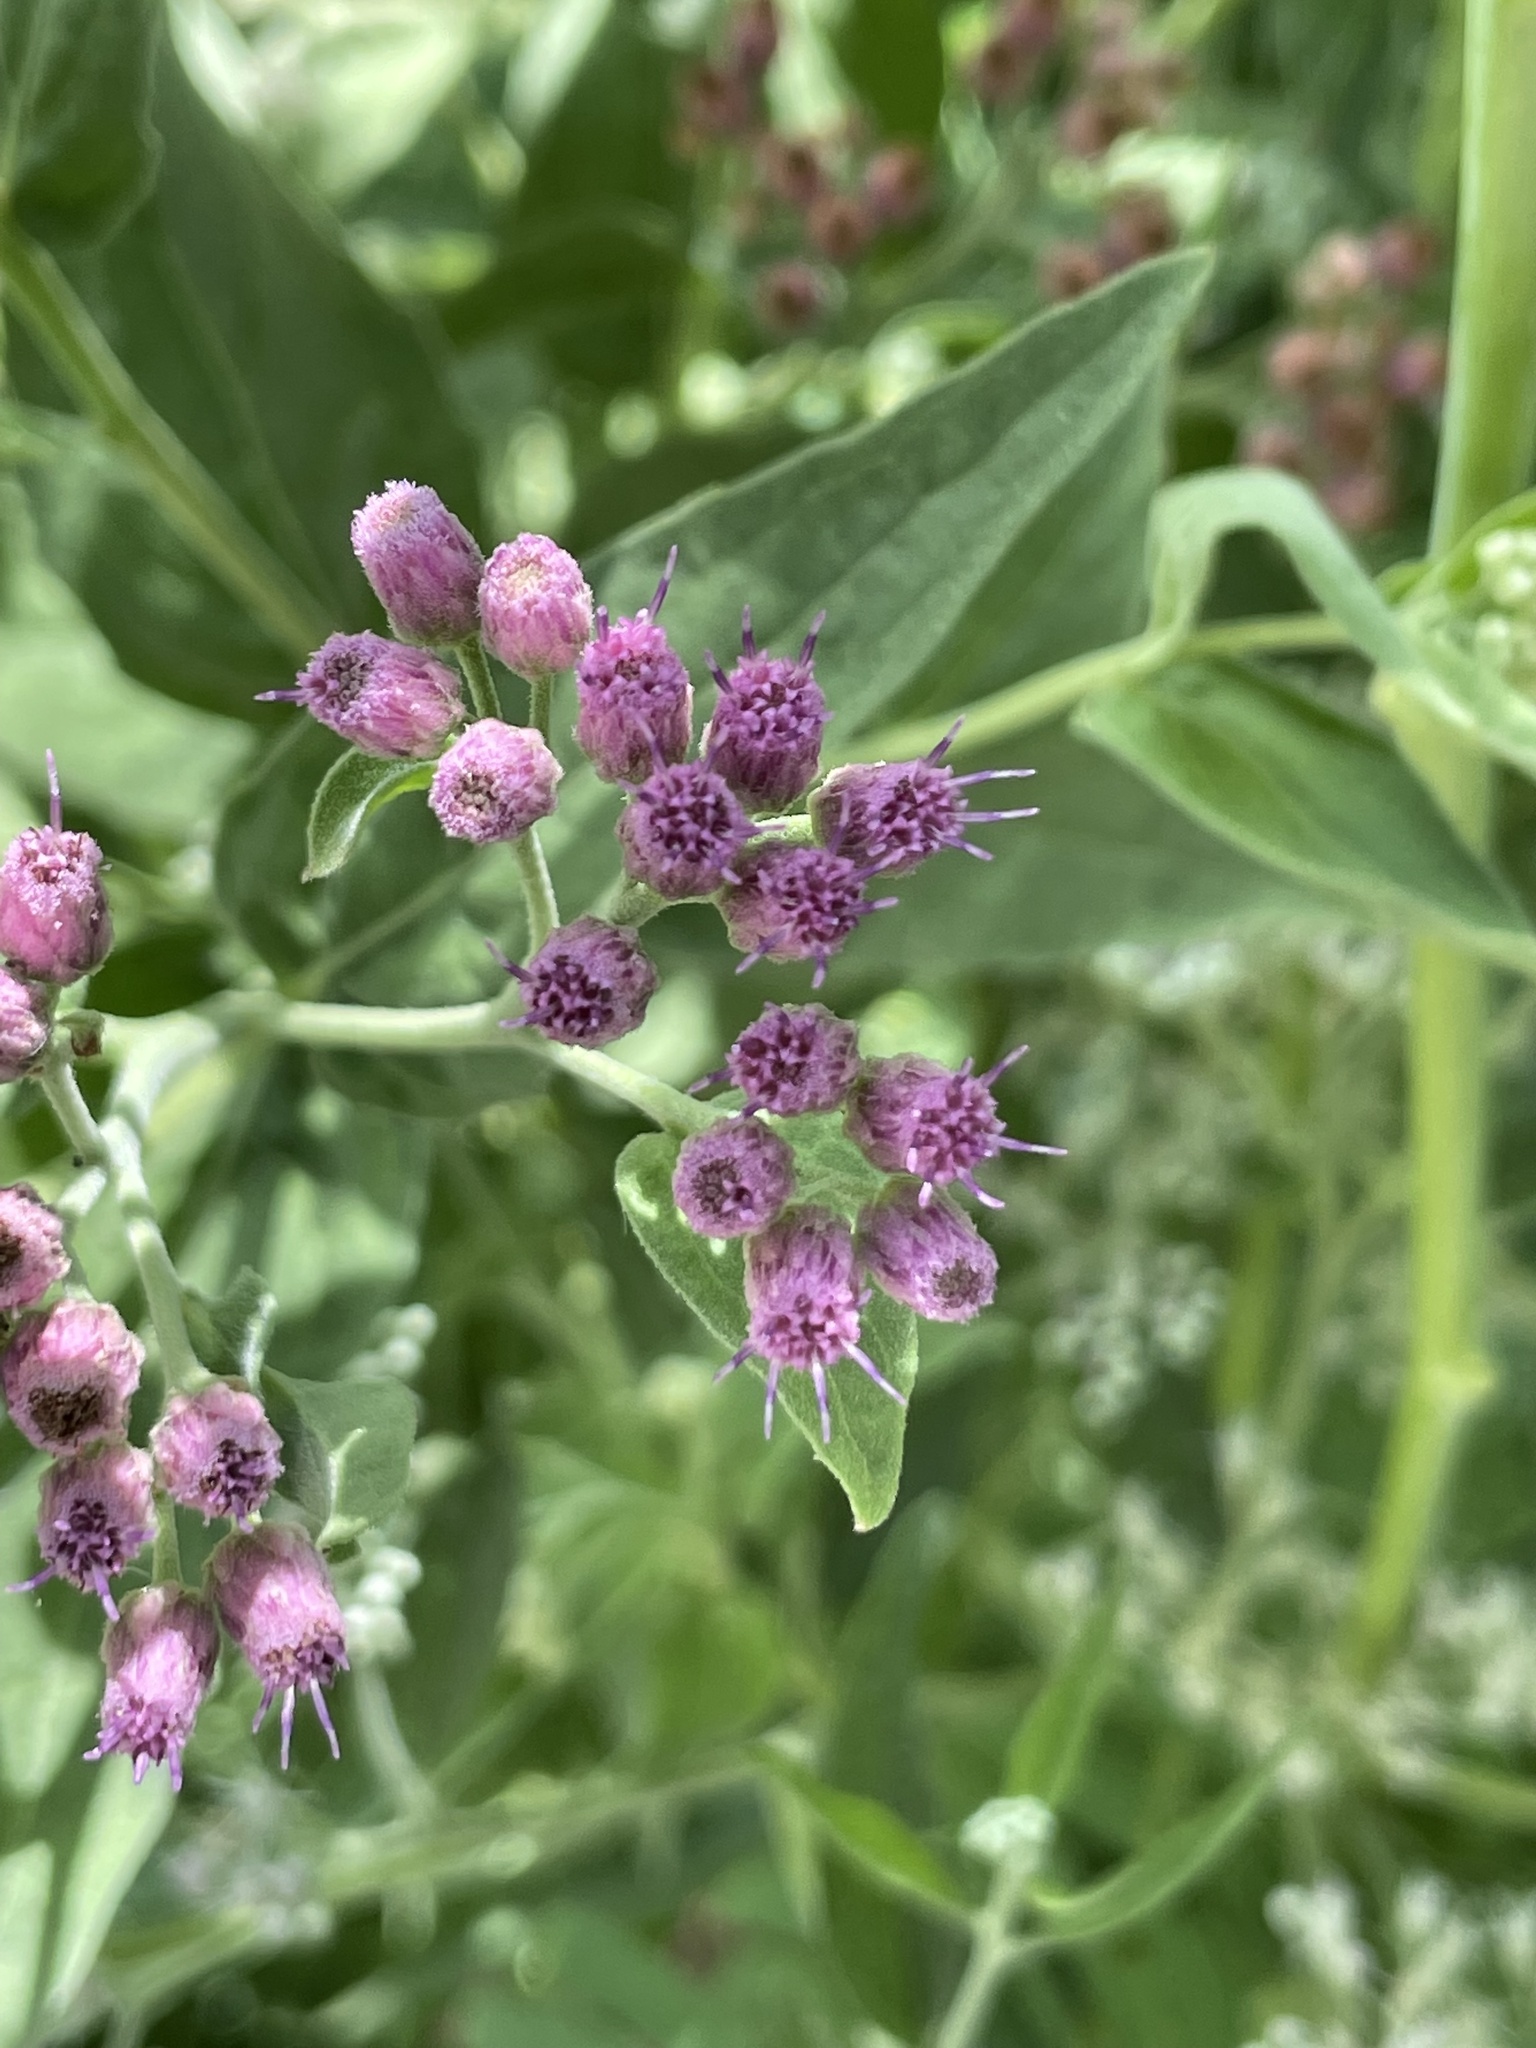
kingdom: Plantae
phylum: Tracheophyta
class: Magnoliopsida
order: Asterales
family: Asteraceae
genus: Pluchea
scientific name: Pluchea odorata
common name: Saltmarsh fleabane
